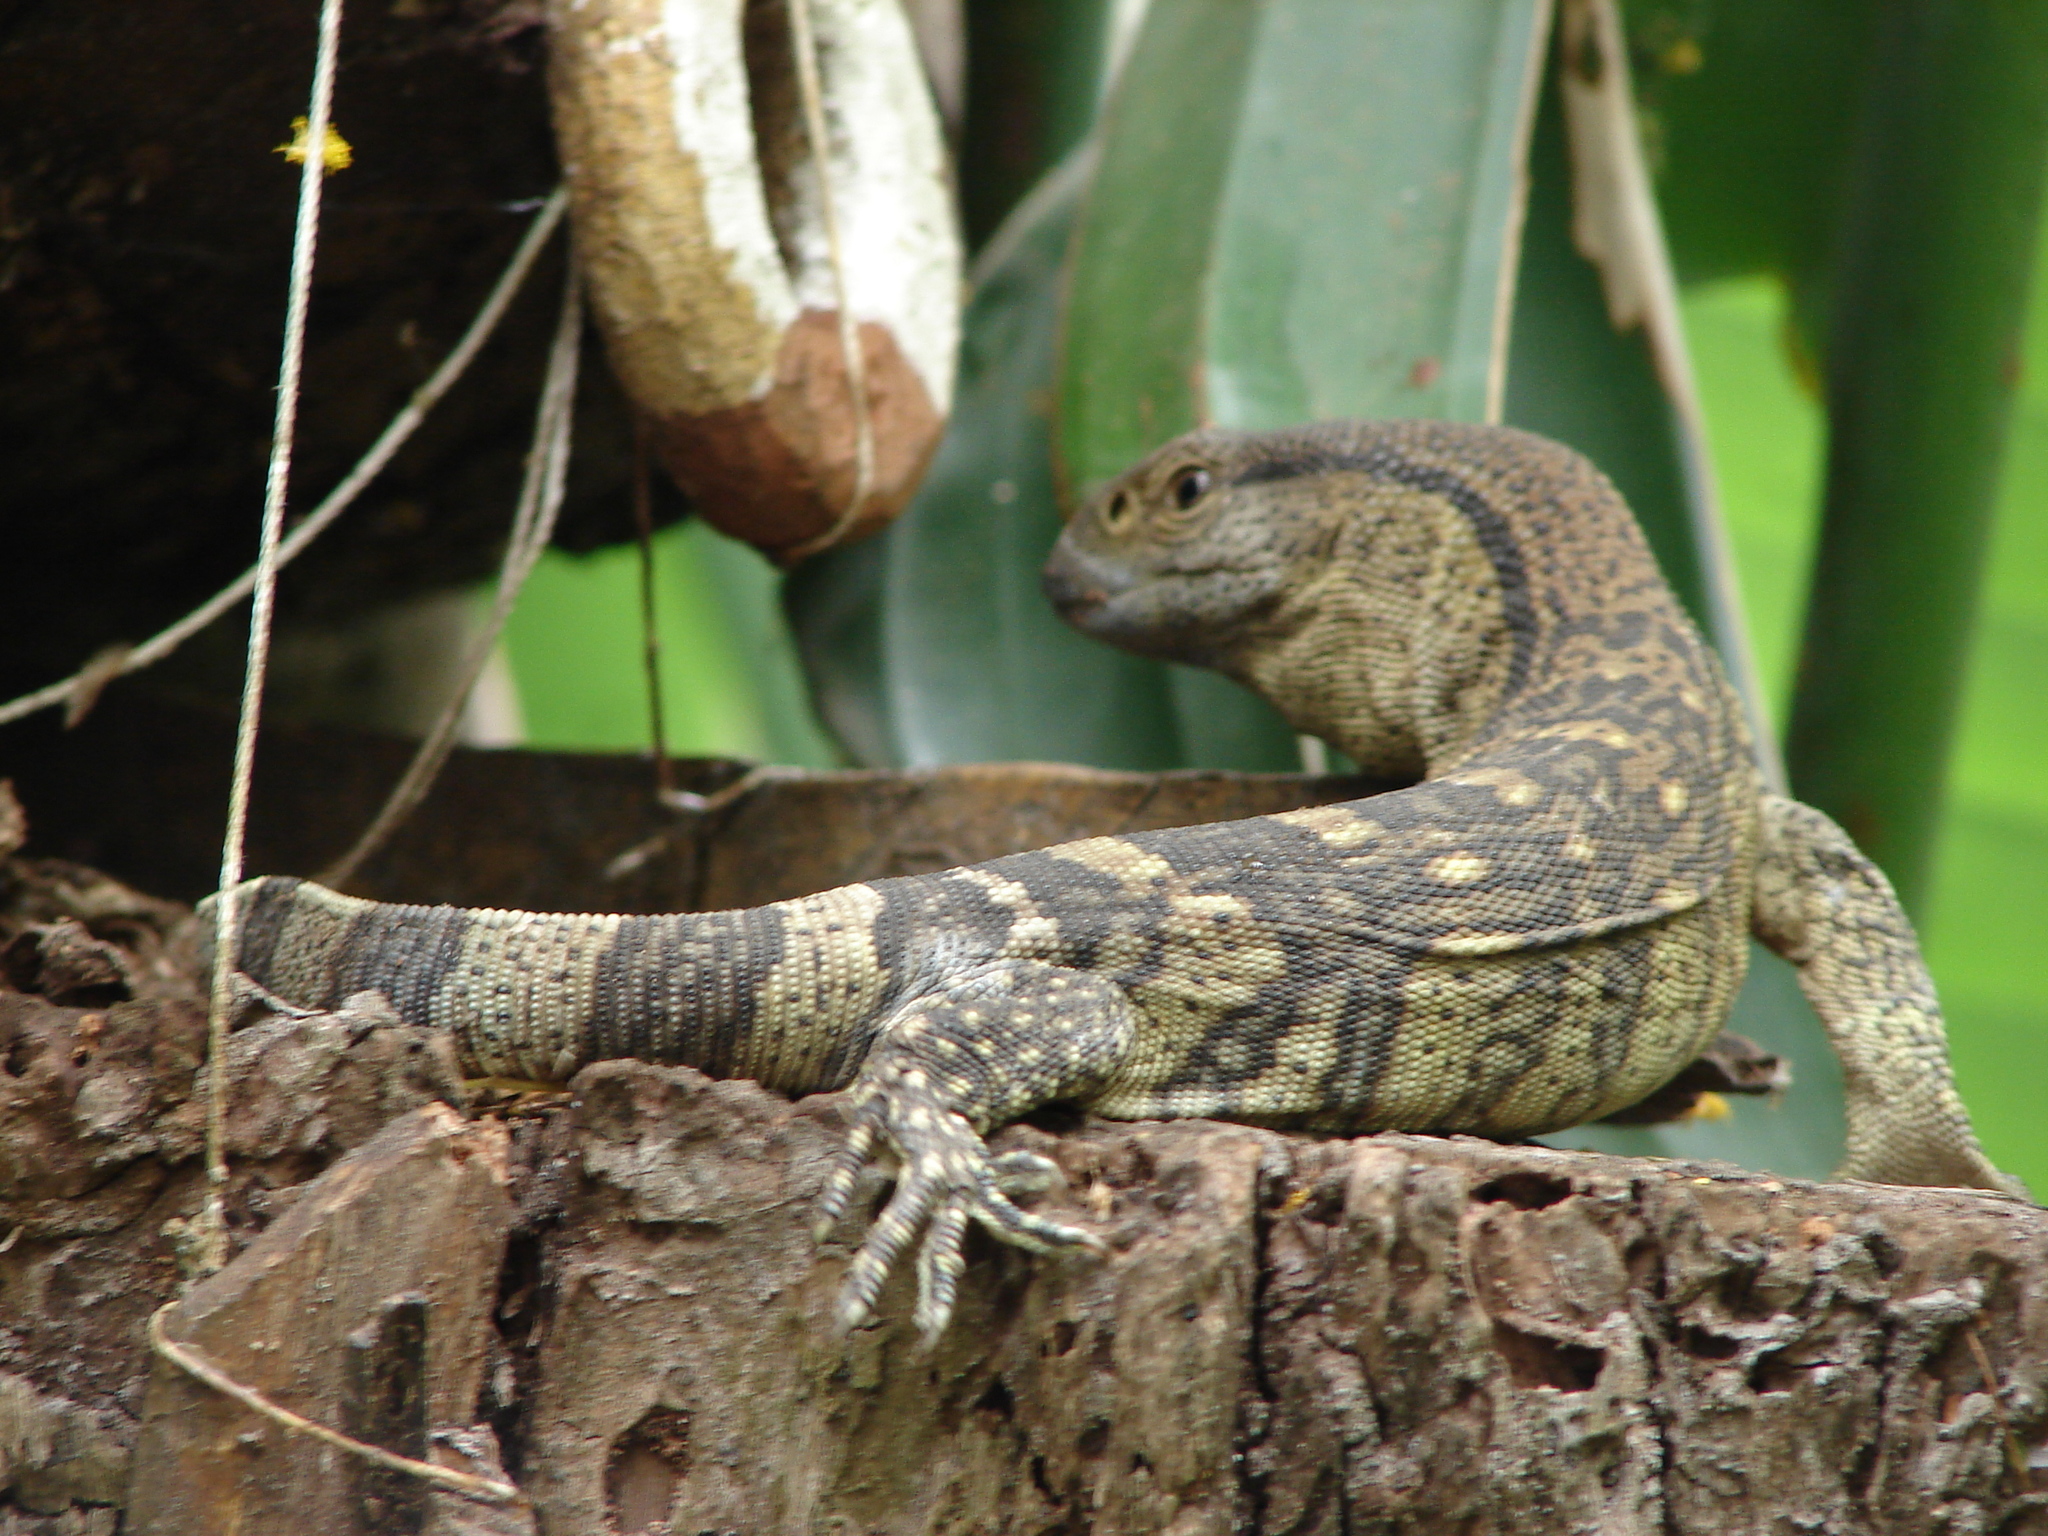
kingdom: Animalia
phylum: Chordata
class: Squamata
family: Varanidae
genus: Varanus
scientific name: Varanus albigularis
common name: White-throated monitor
